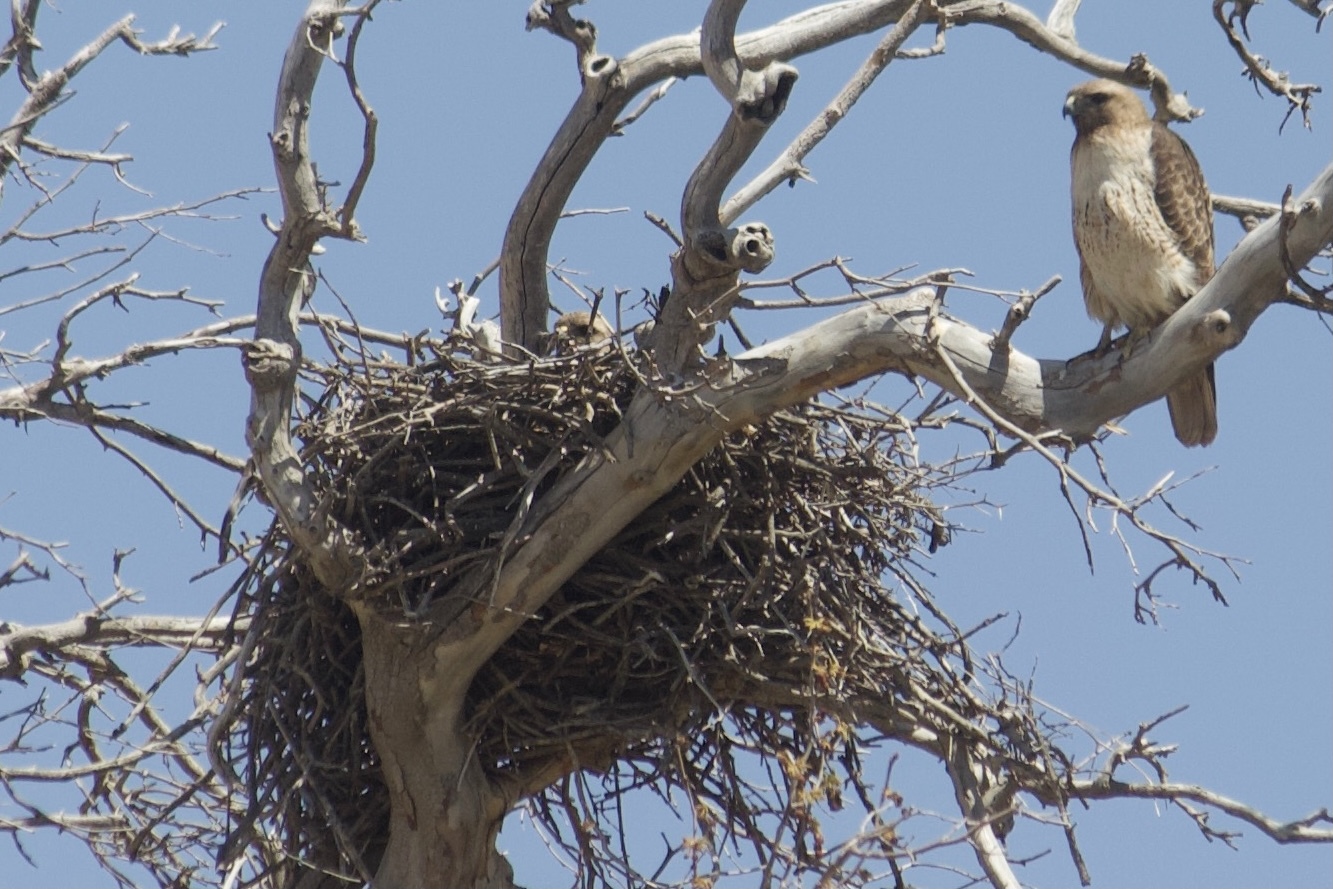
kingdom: Animalia
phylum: Chordata
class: Aves
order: Accipitriformes
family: Accipitridae
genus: Buteo
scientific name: Buteo jamaicensis
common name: Red-tailed hawk
